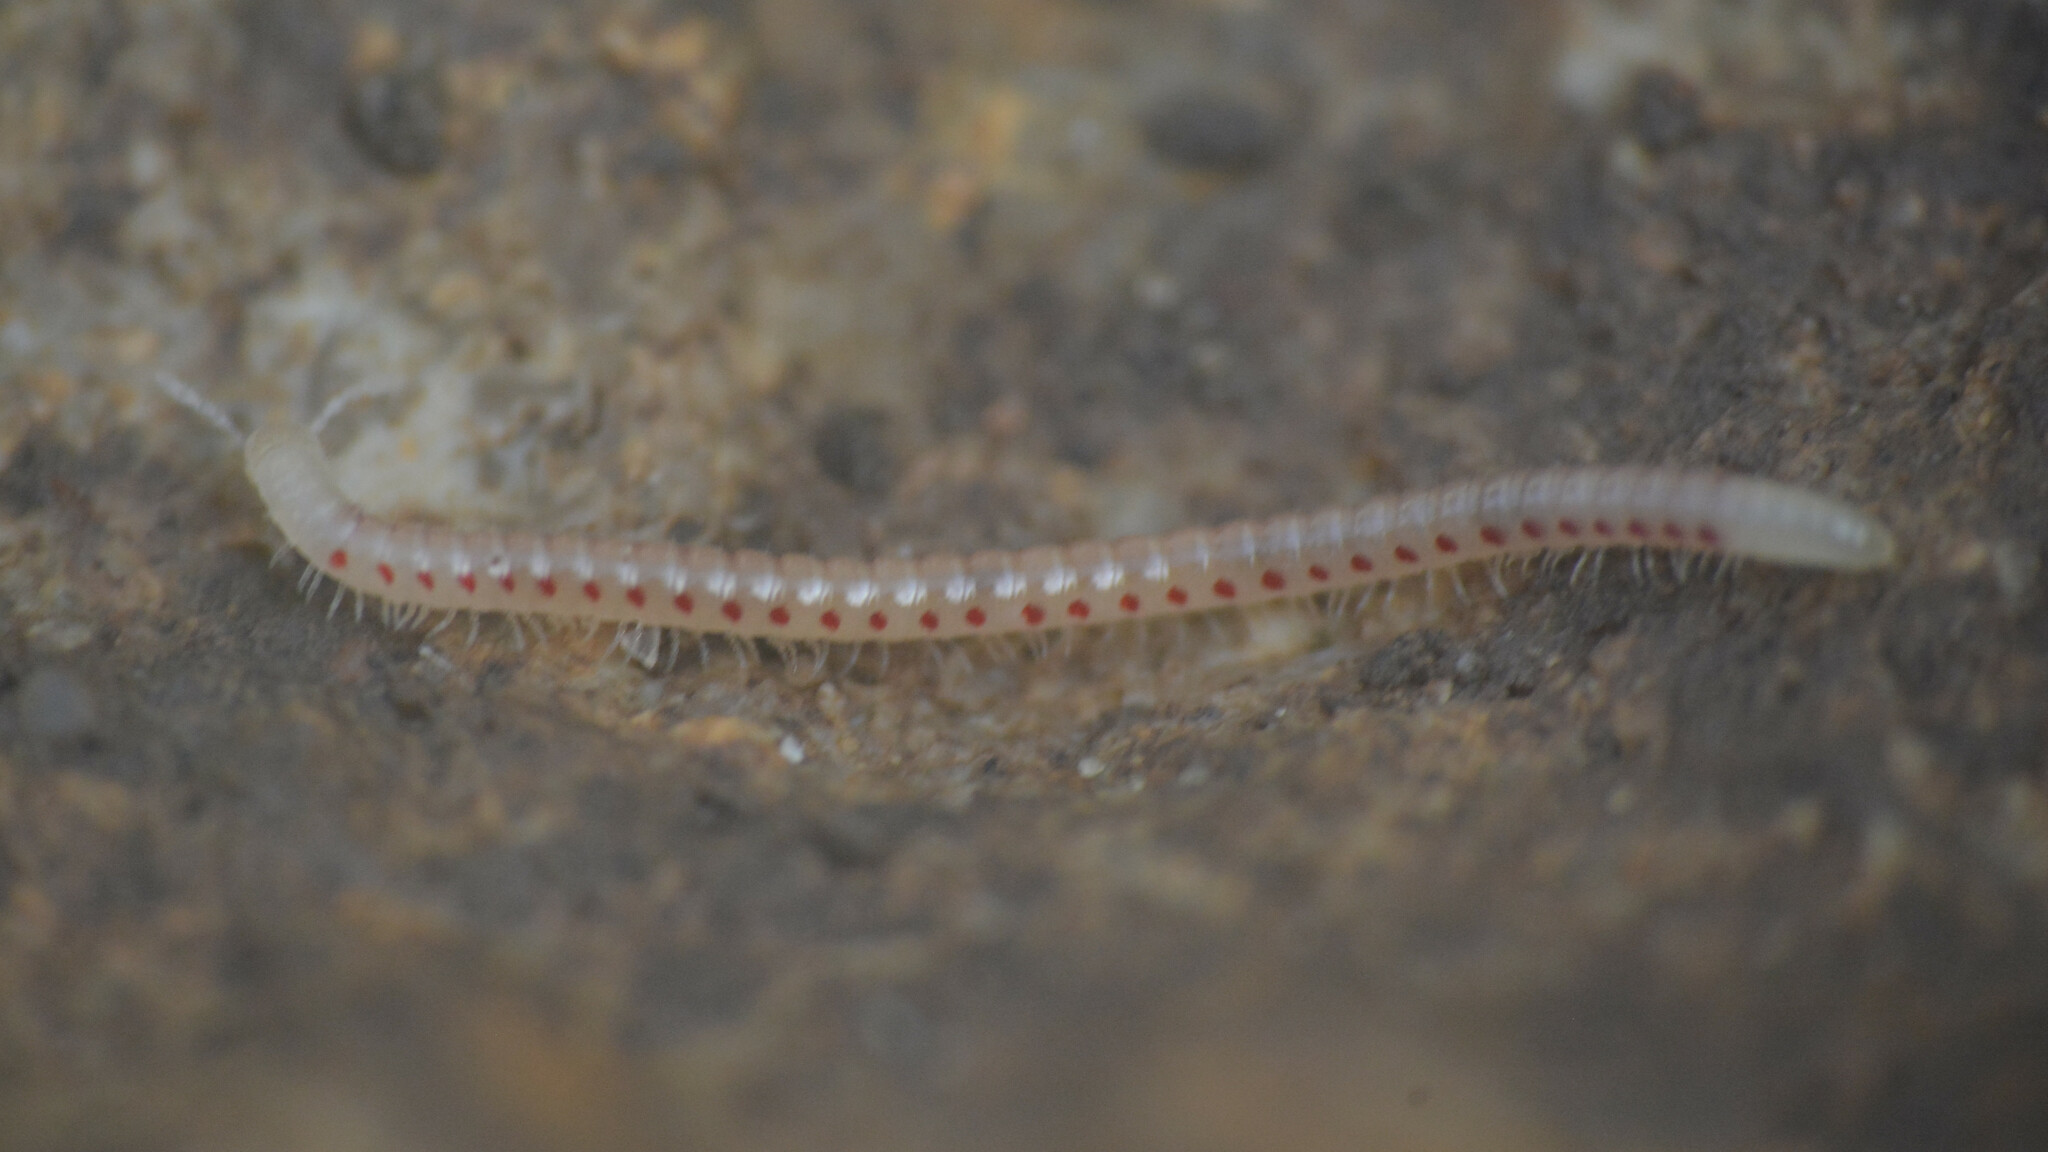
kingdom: Animalia
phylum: Arthropoda
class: Diplopoda
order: Julida
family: Blaniulidae
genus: Blaniulus
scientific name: Blaniulus guttulatus
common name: Spotted snake millipede
